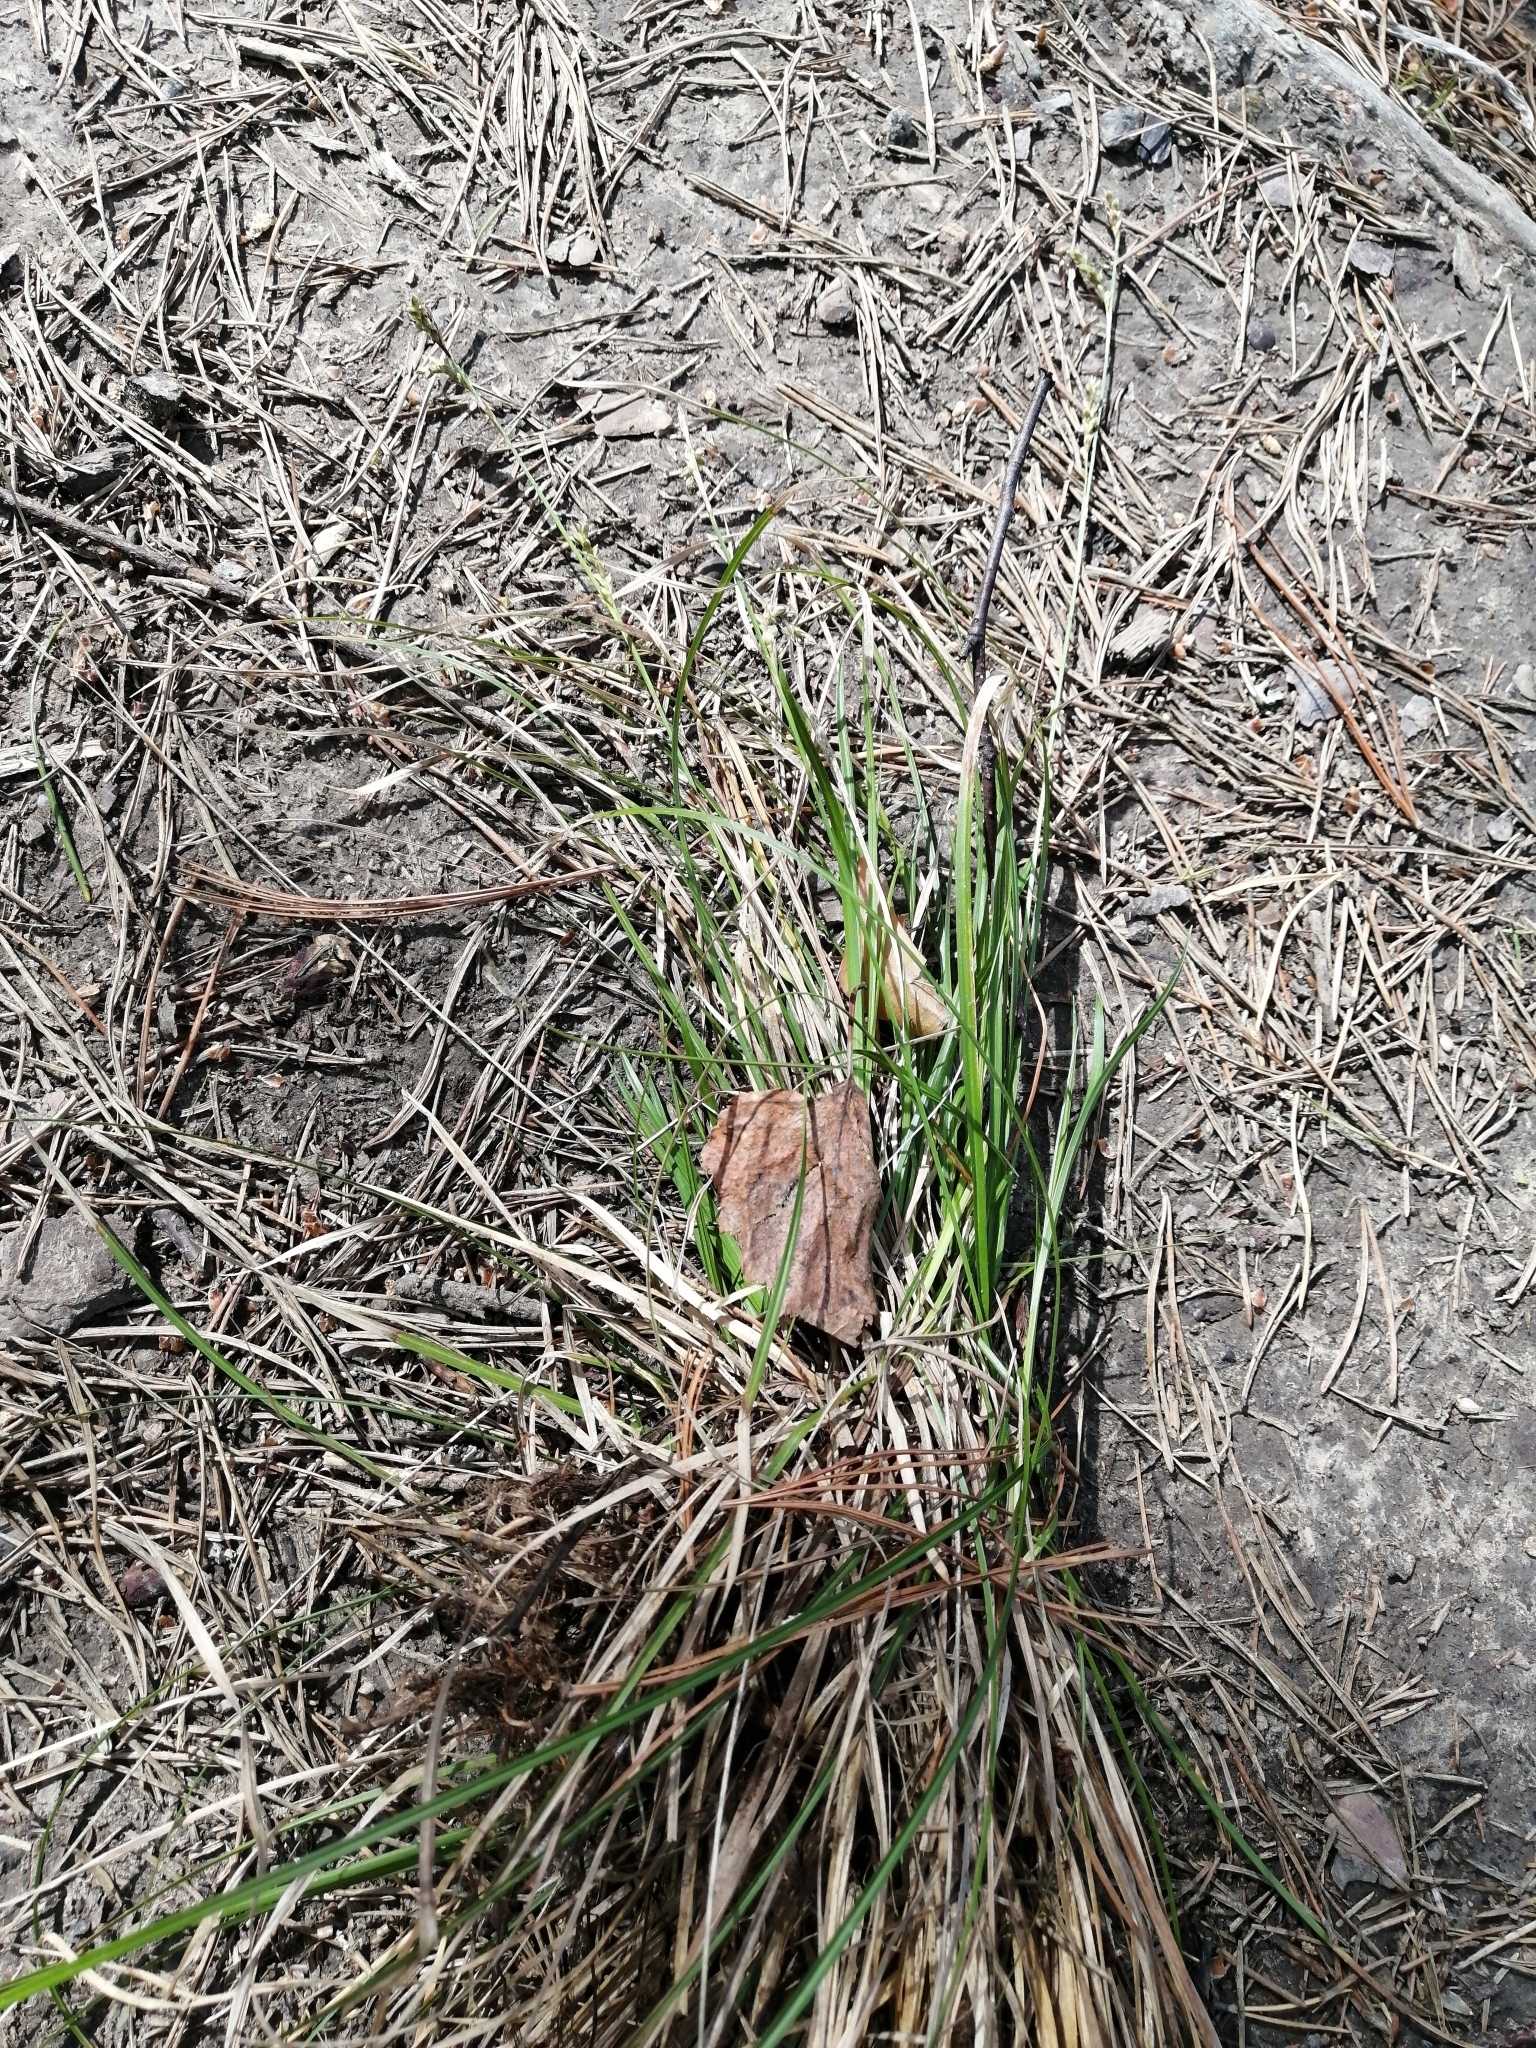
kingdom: Plantae
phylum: Tracheophyta
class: Liliopsida
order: Poales
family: Cyperaceae
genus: Carex
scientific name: Carex pediformis
